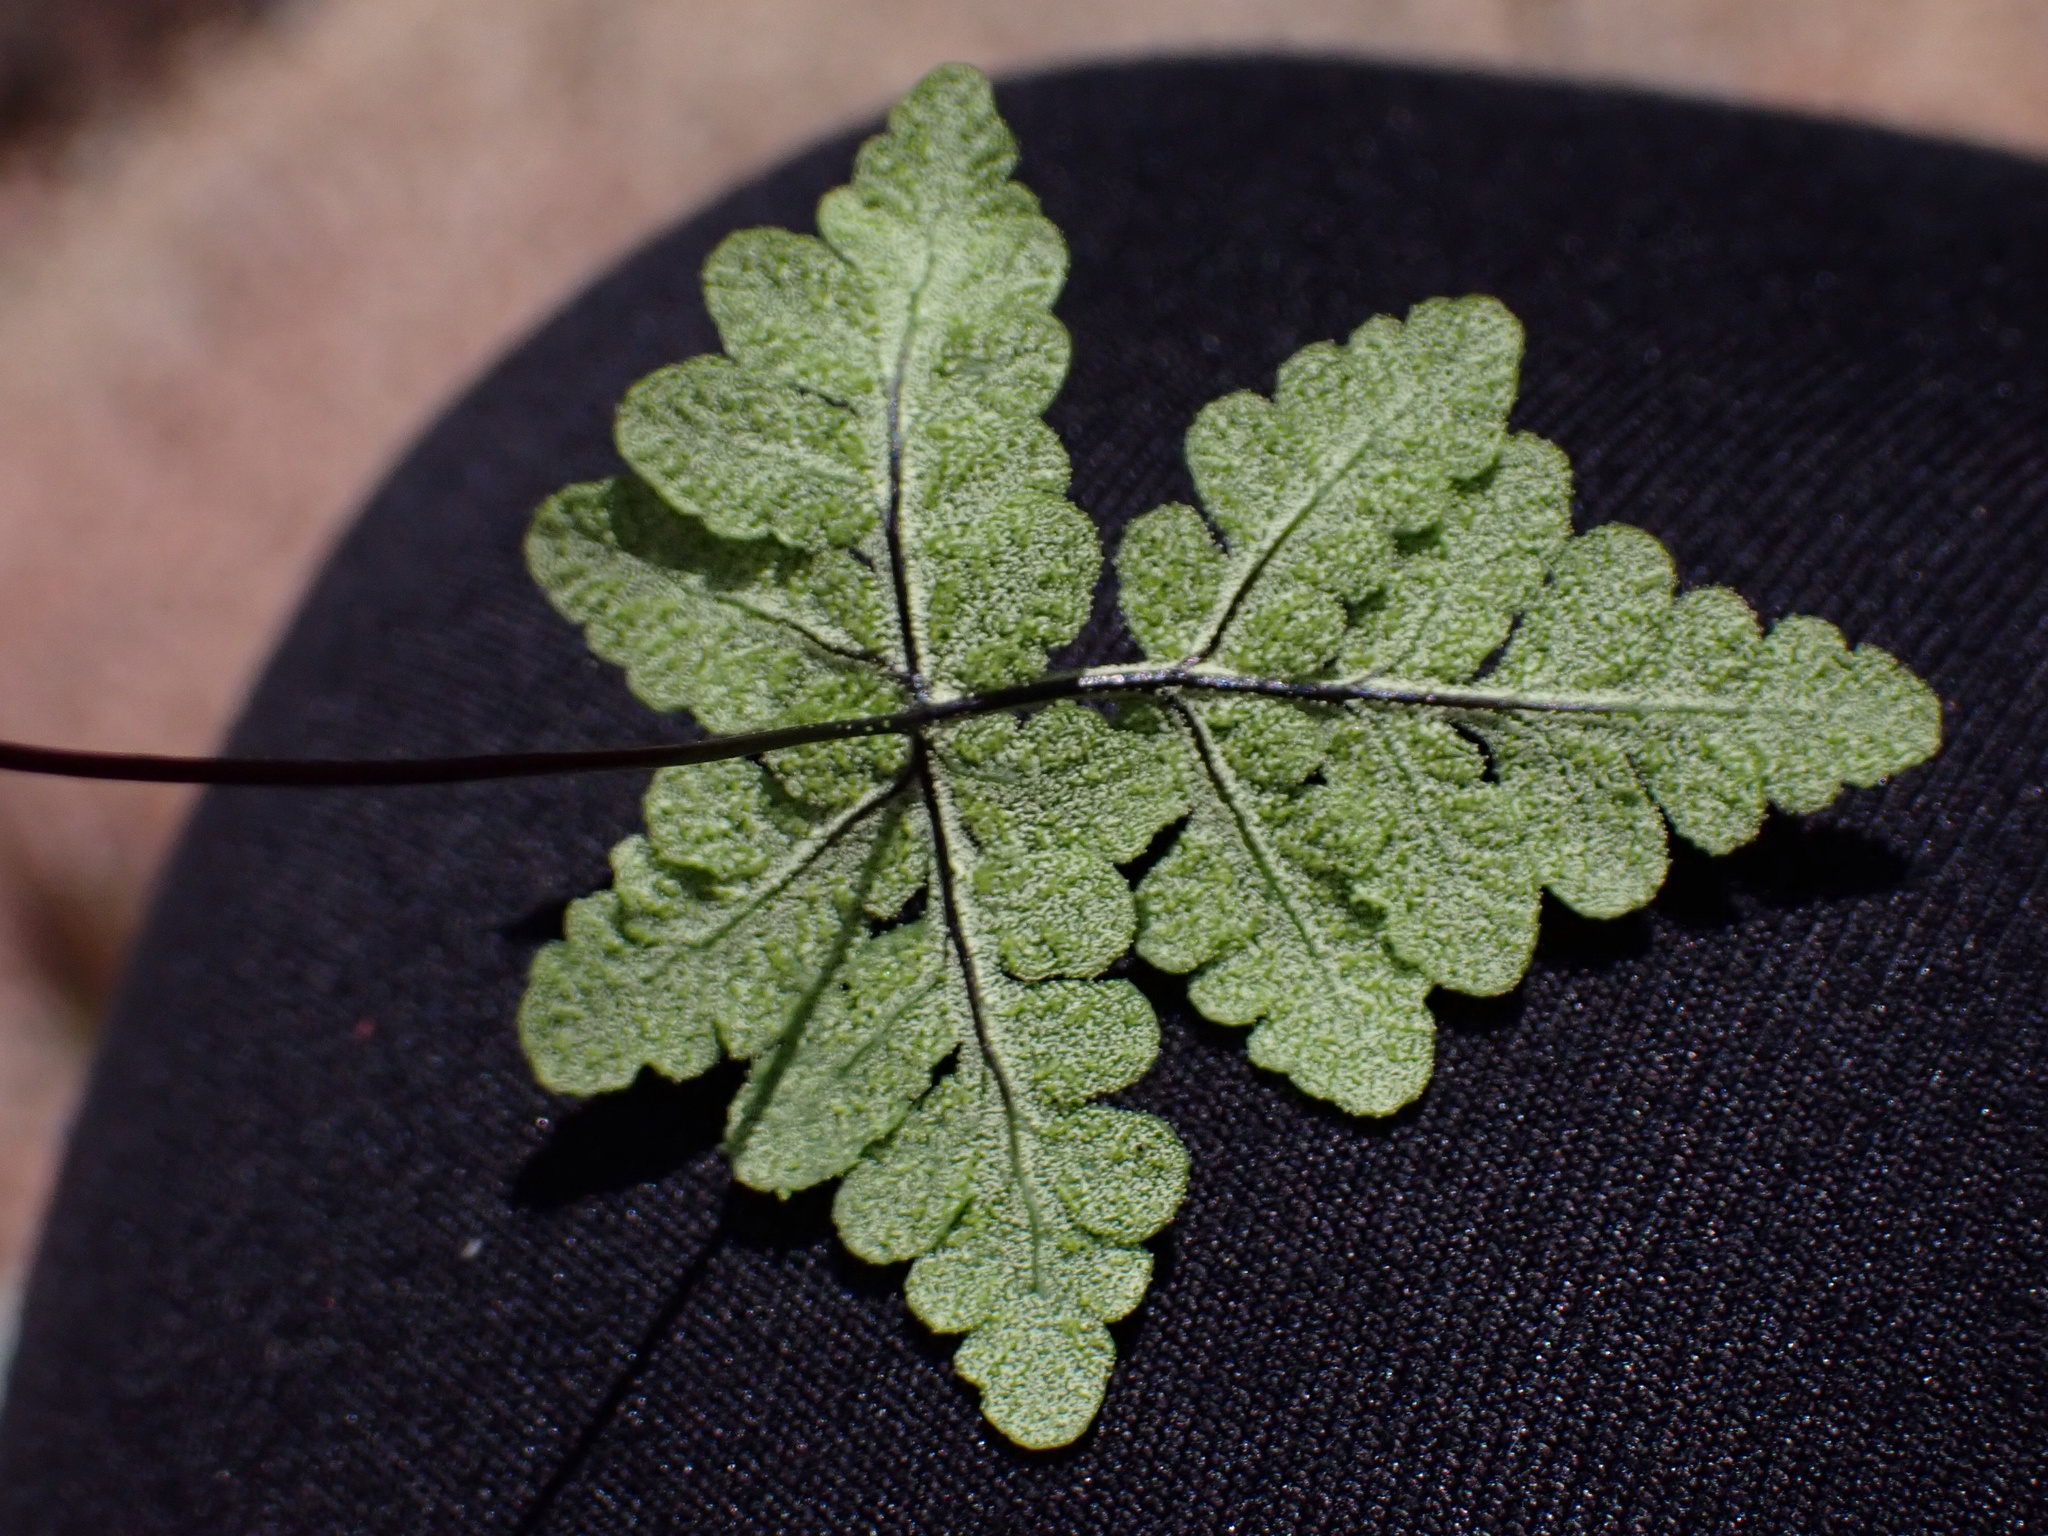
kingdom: Plantae
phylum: Tracheophyta
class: Polypodiopsida
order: Polypodiales
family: Pteridaceae
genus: Pentagramma
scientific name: Pentagramma rebmanii
